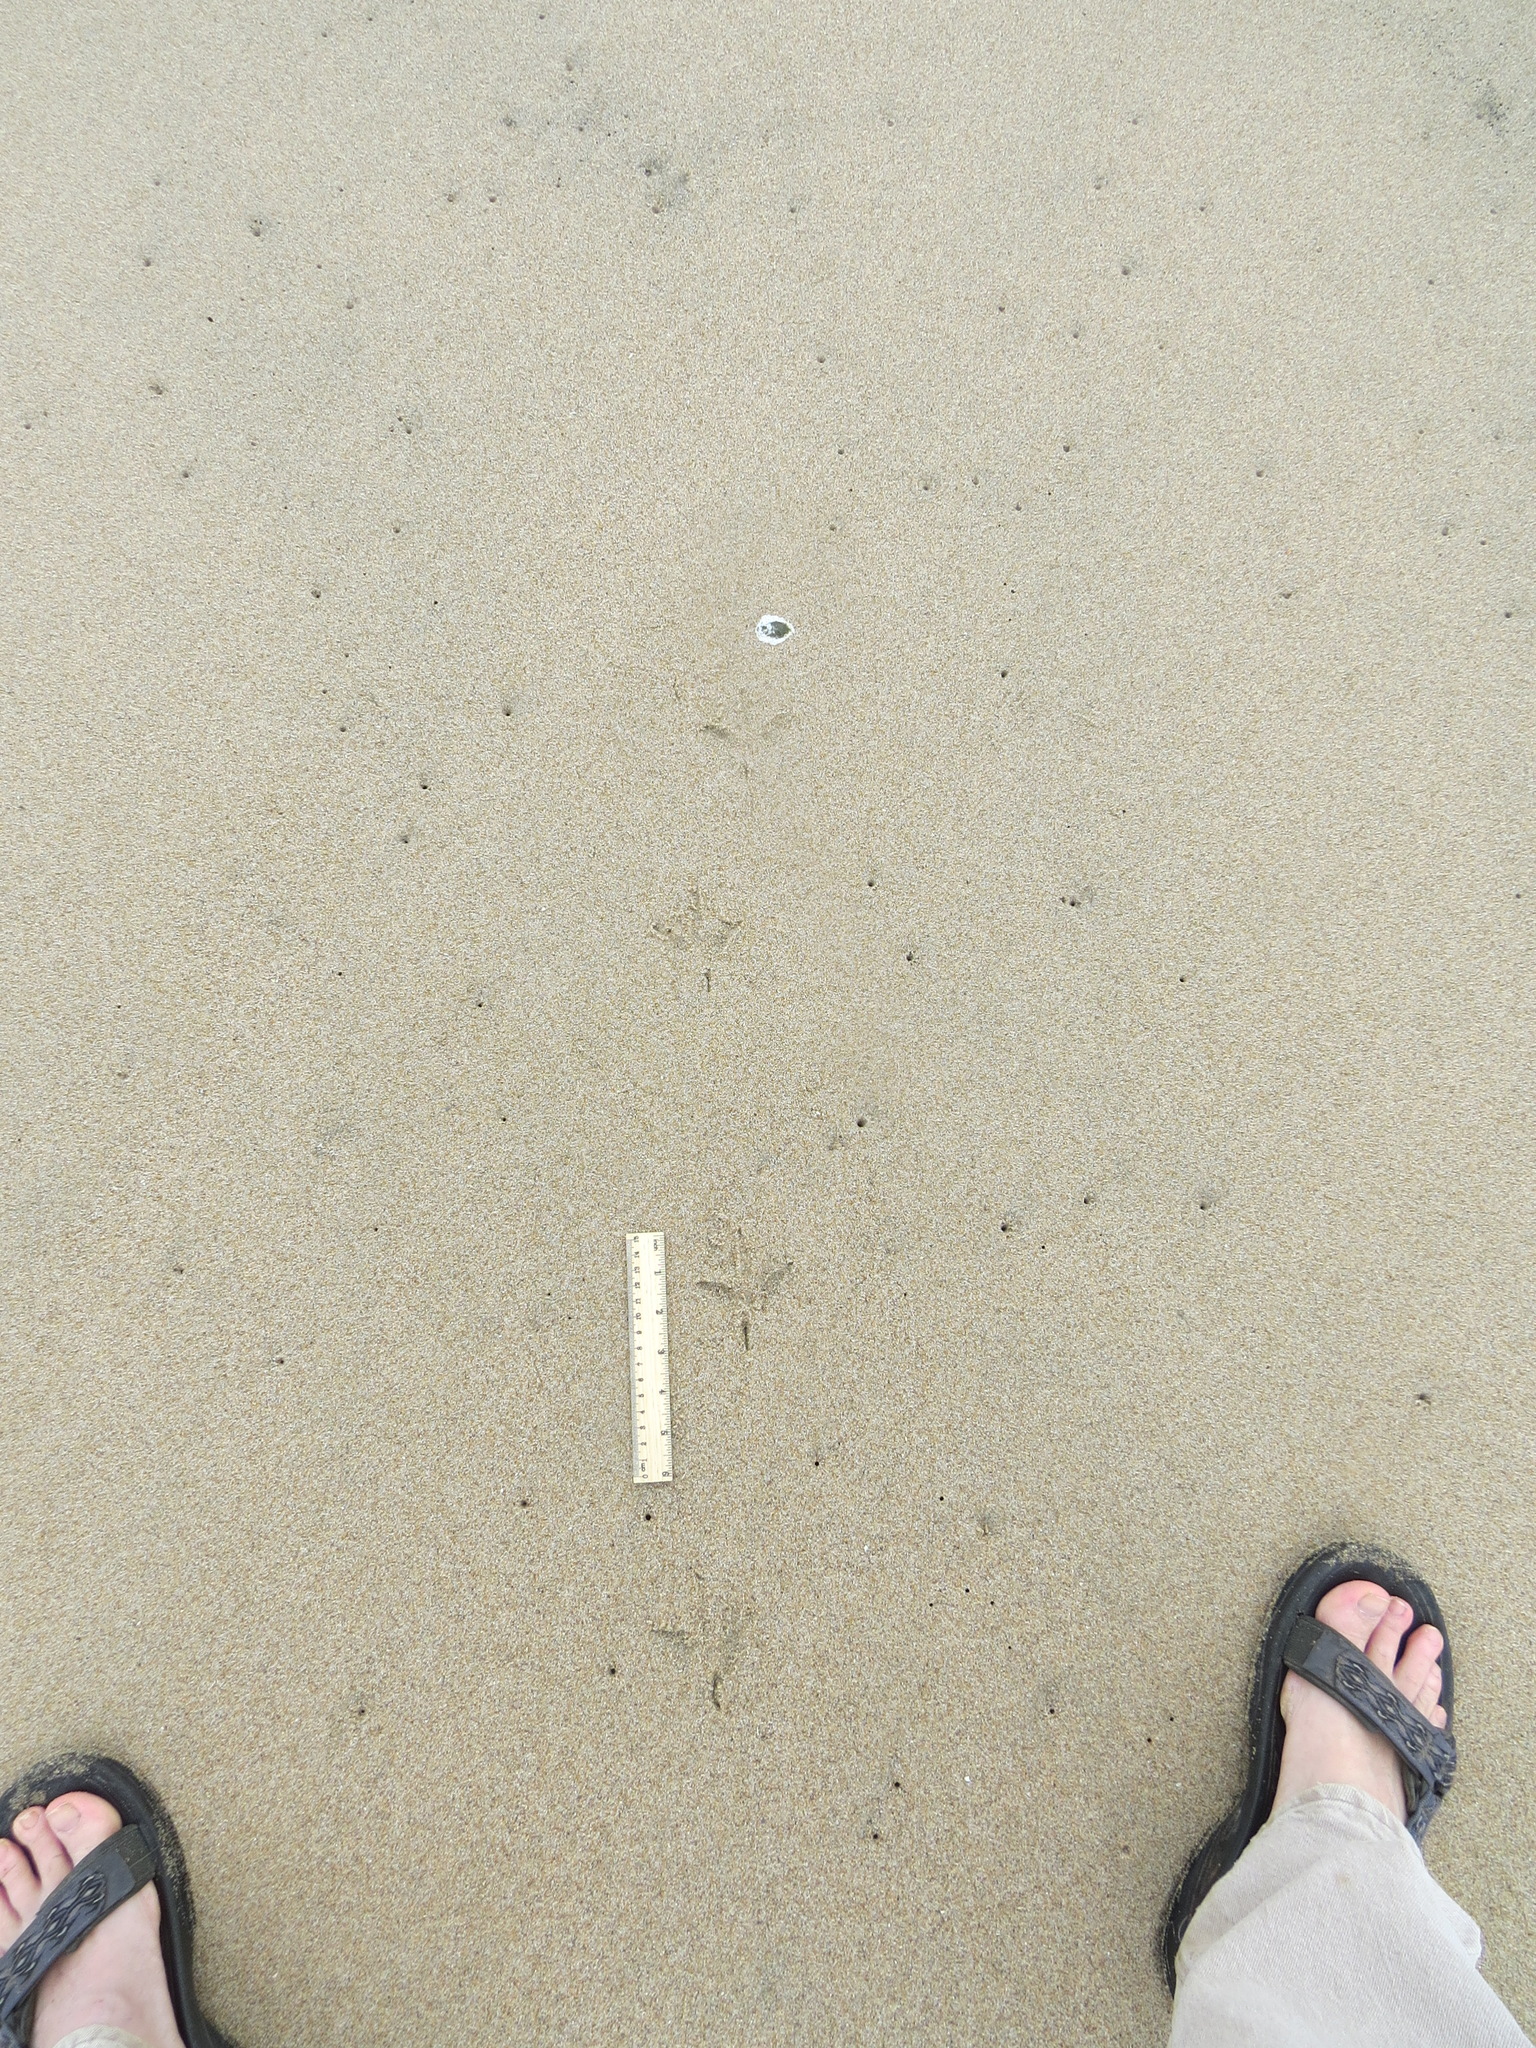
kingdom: Animalia
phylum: Chordata
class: Aves
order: Charadriiformes
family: Scolopacidae
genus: Numenius
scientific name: Numenius phaeopus
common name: Whimbrel
